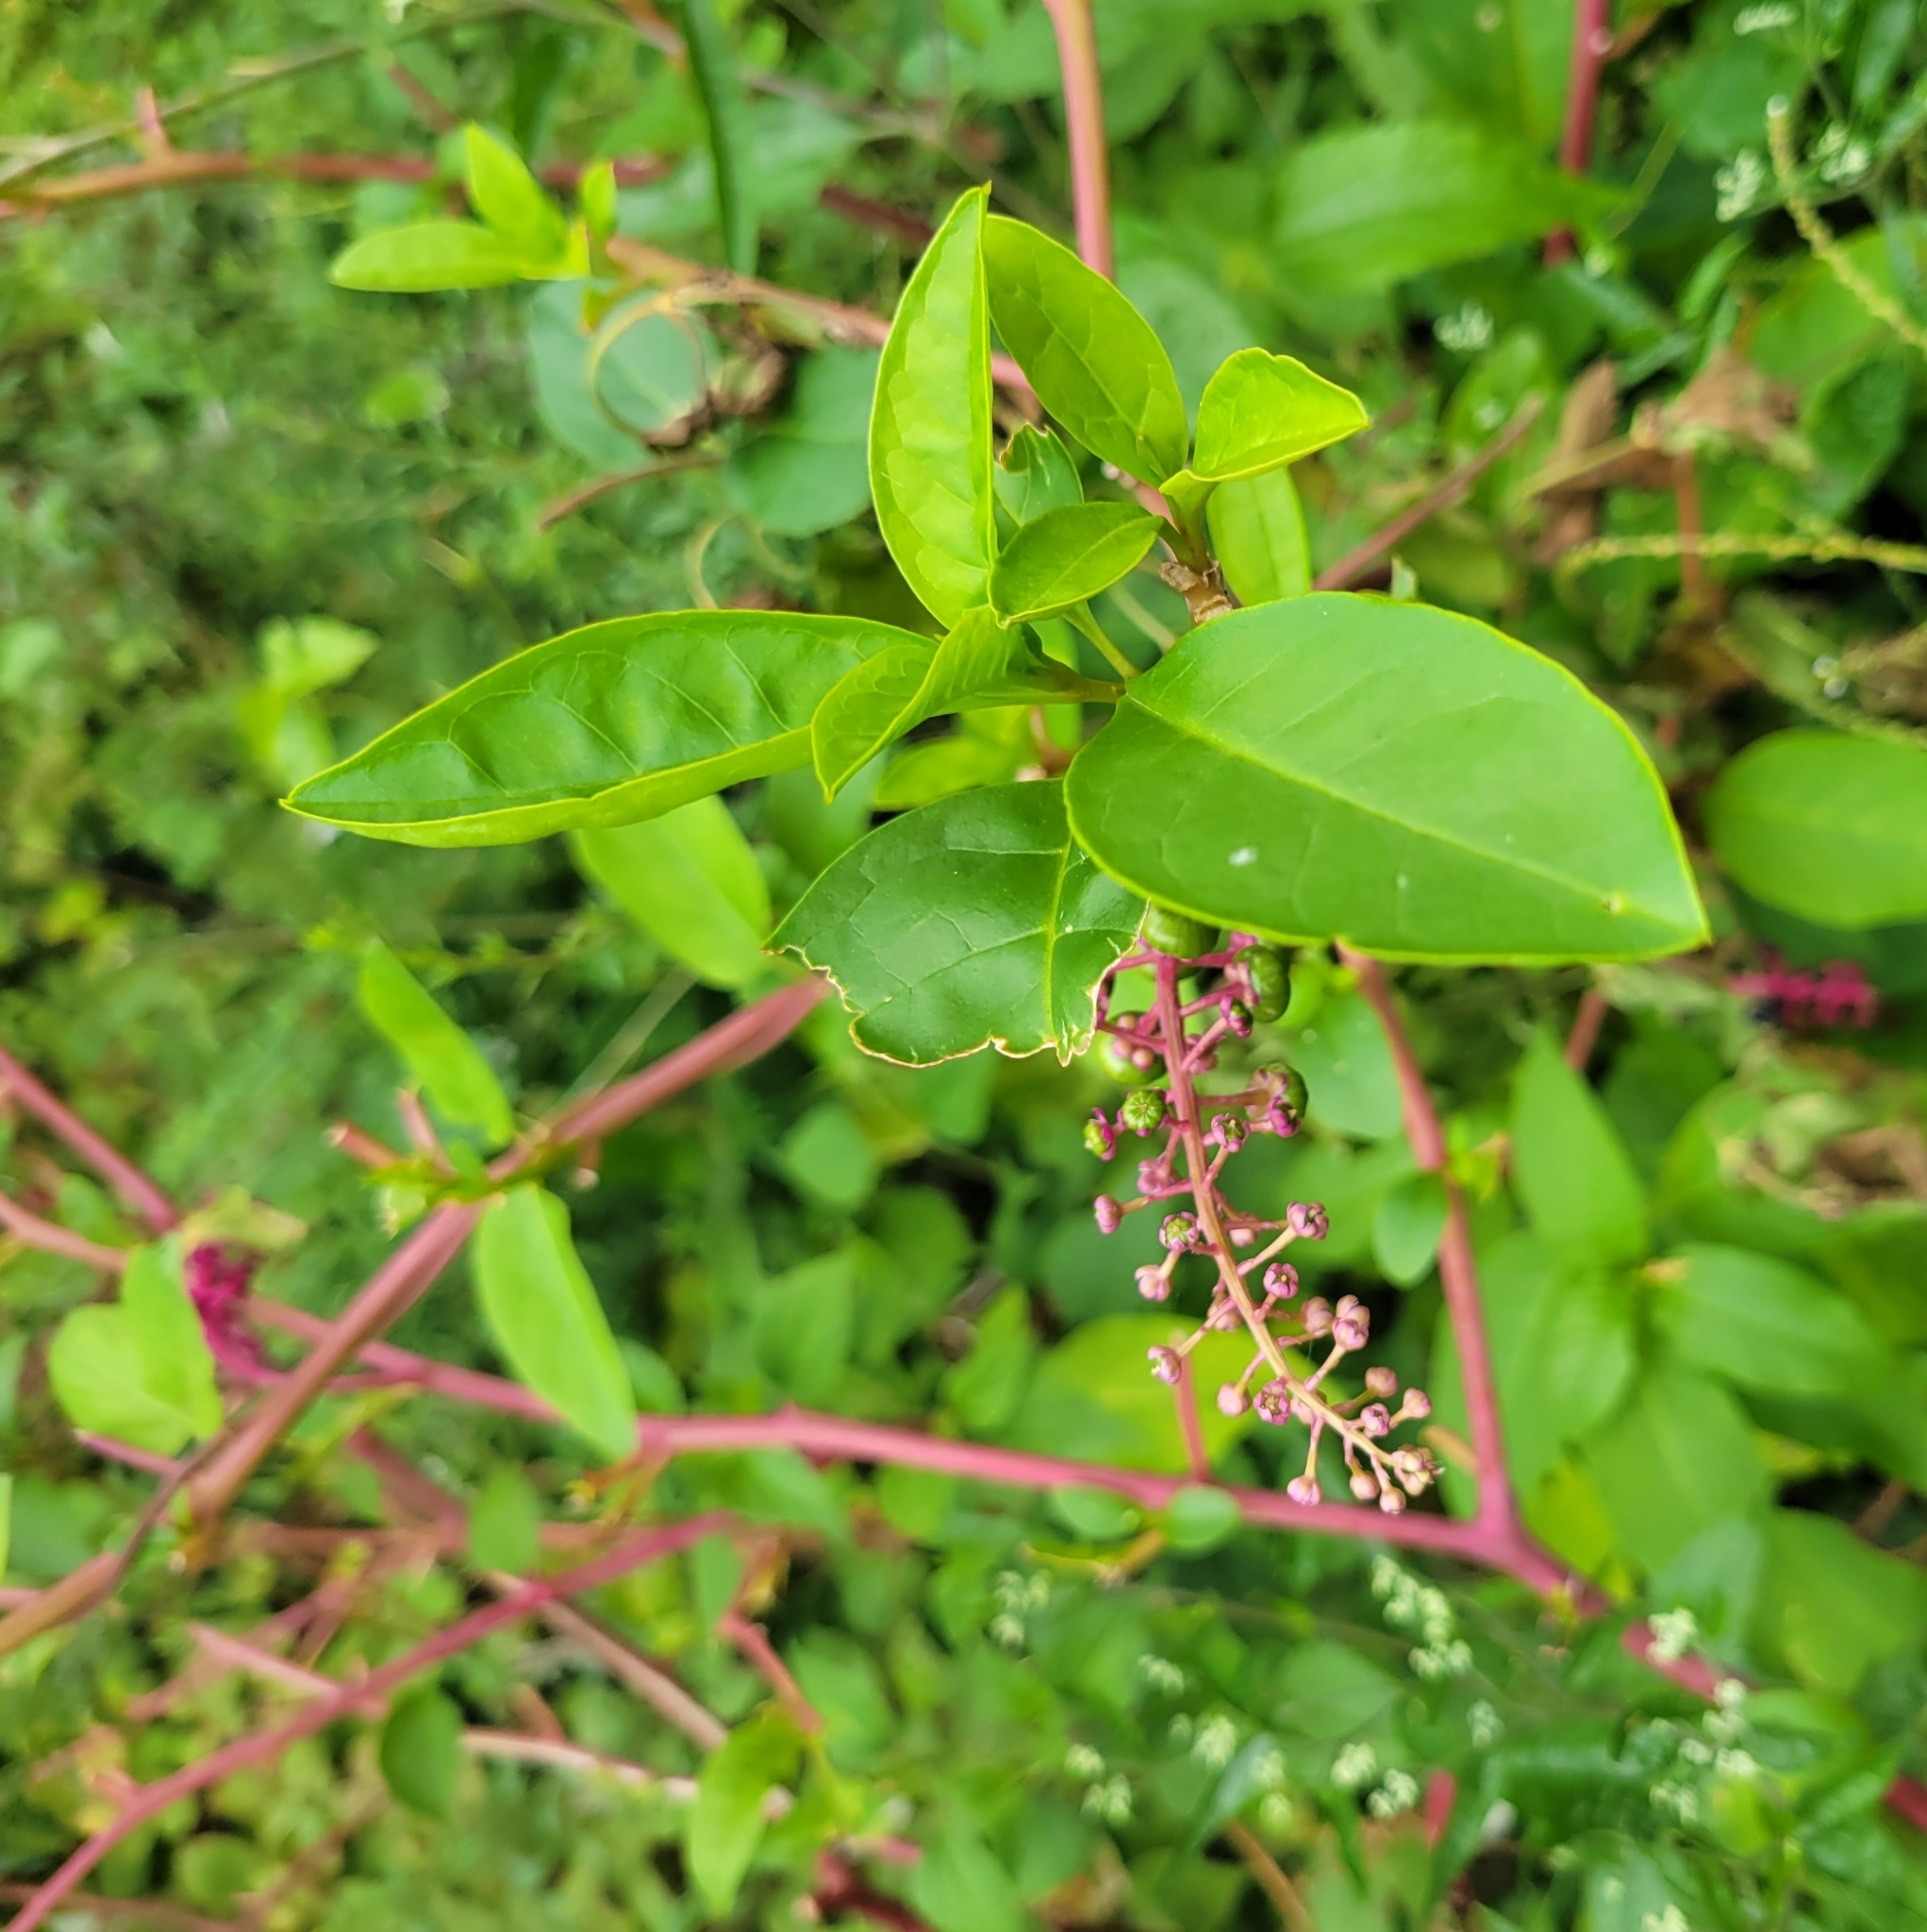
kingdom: Plantae
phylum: Tracheophyta
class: Magnoliopsida
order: Caryophyllales
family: Phytolaccaceae
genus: Phytolacca
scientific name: Phytolacca americana
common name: American pokeweed
